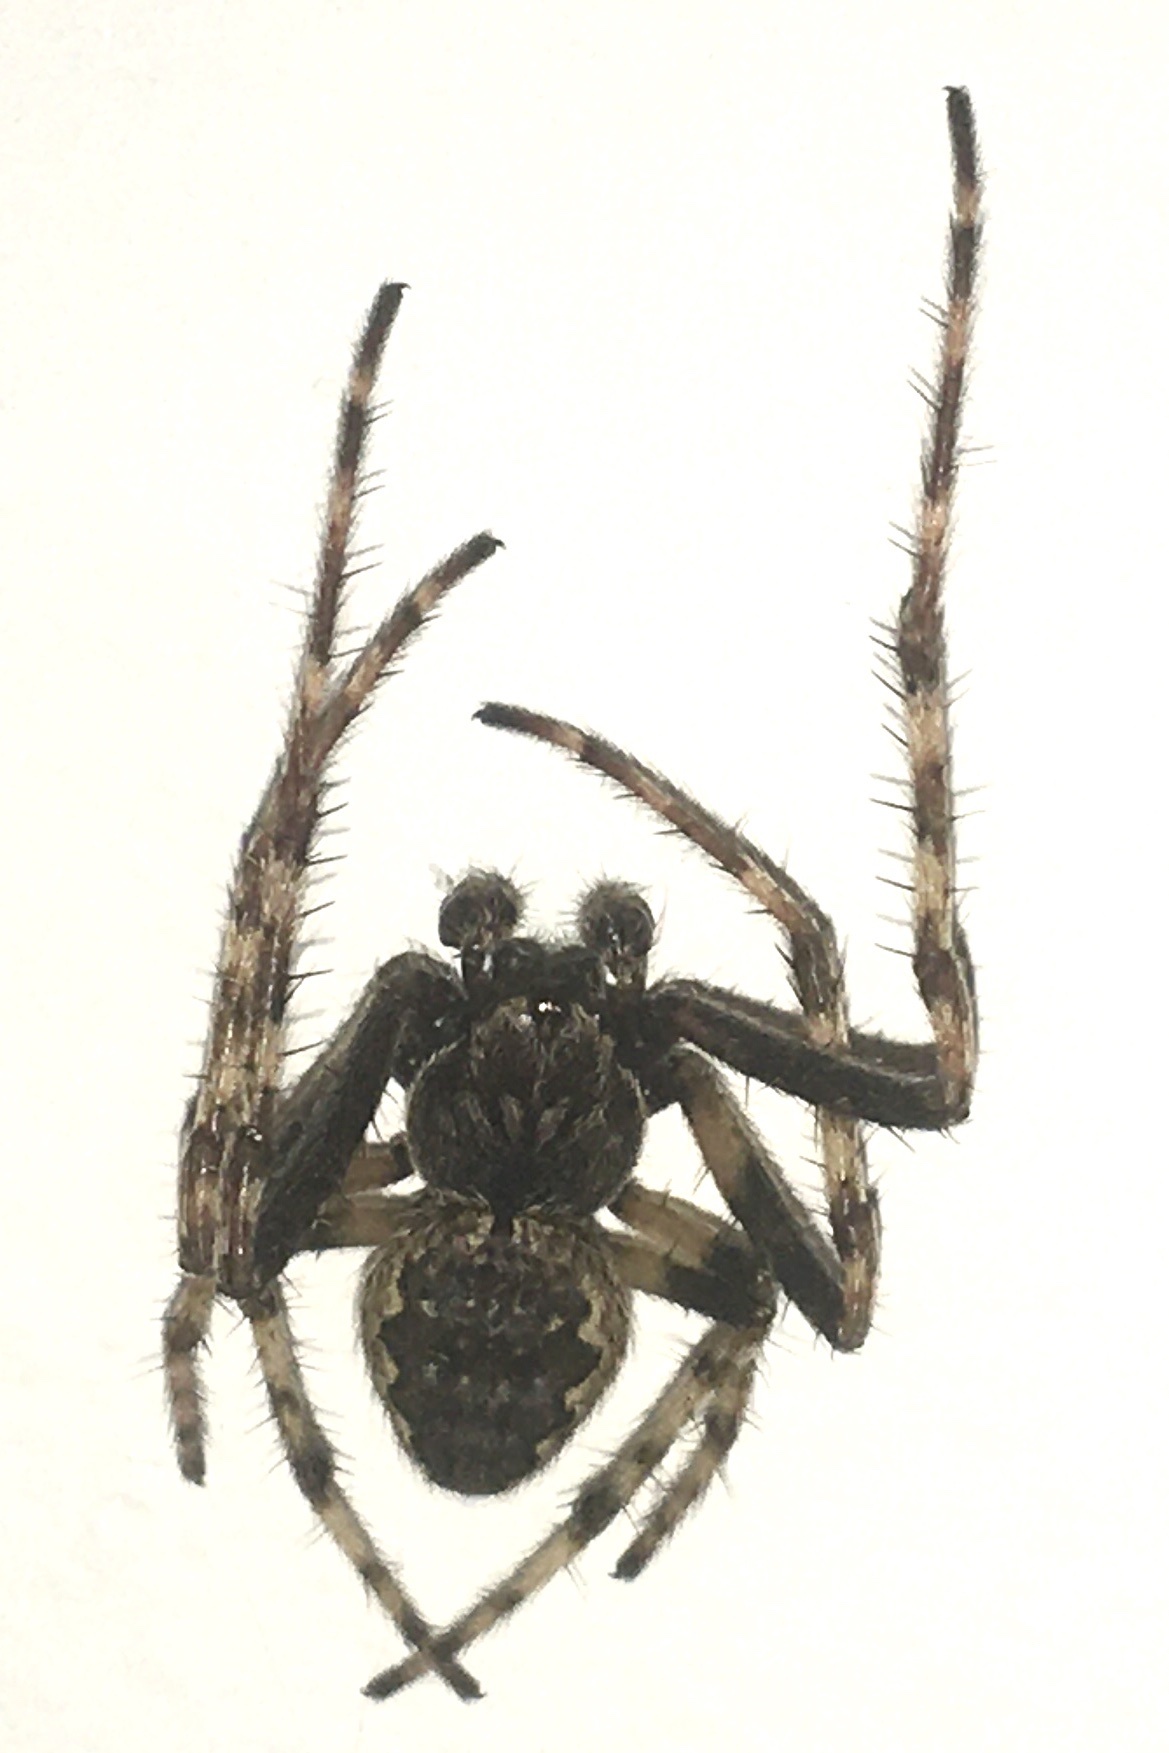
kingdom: Animalia
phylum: Arthropoda
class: Arachnida
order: Araneae
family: Araneidae
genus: Nuctenea
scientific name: Nuctenea umbratica
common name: Toad spider
